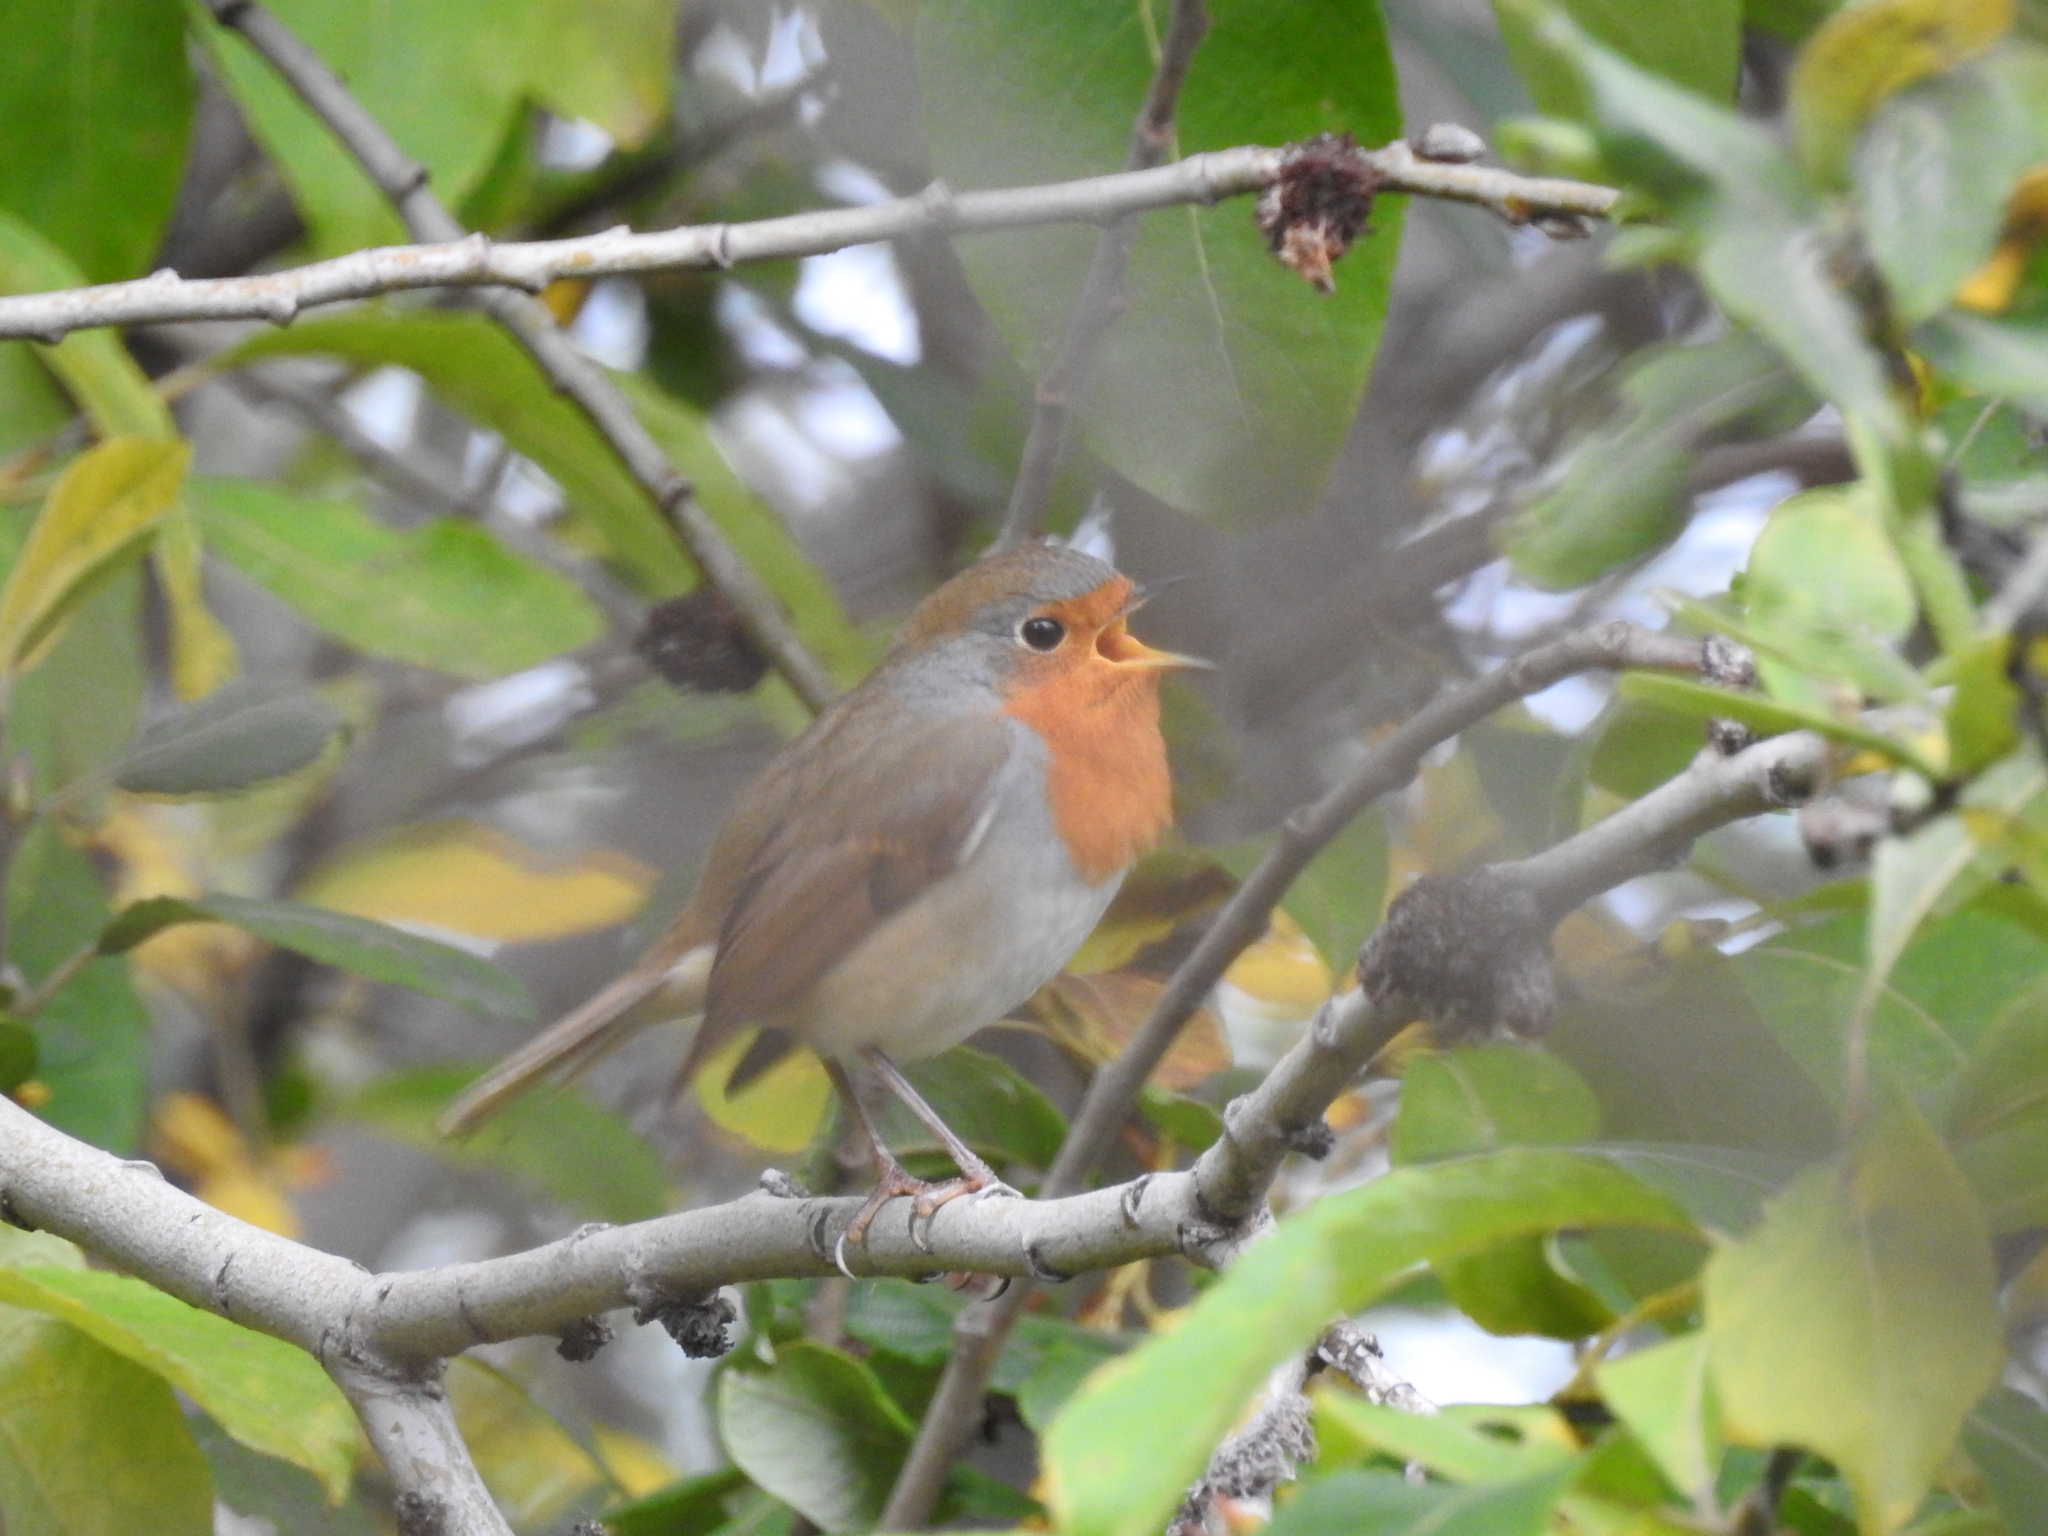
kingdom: Animalia
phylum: Chordata
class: Aves
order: Passeriformes
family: Muscicapidae
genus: Erithacus
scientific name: Erithacus rubecula
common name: European robin
